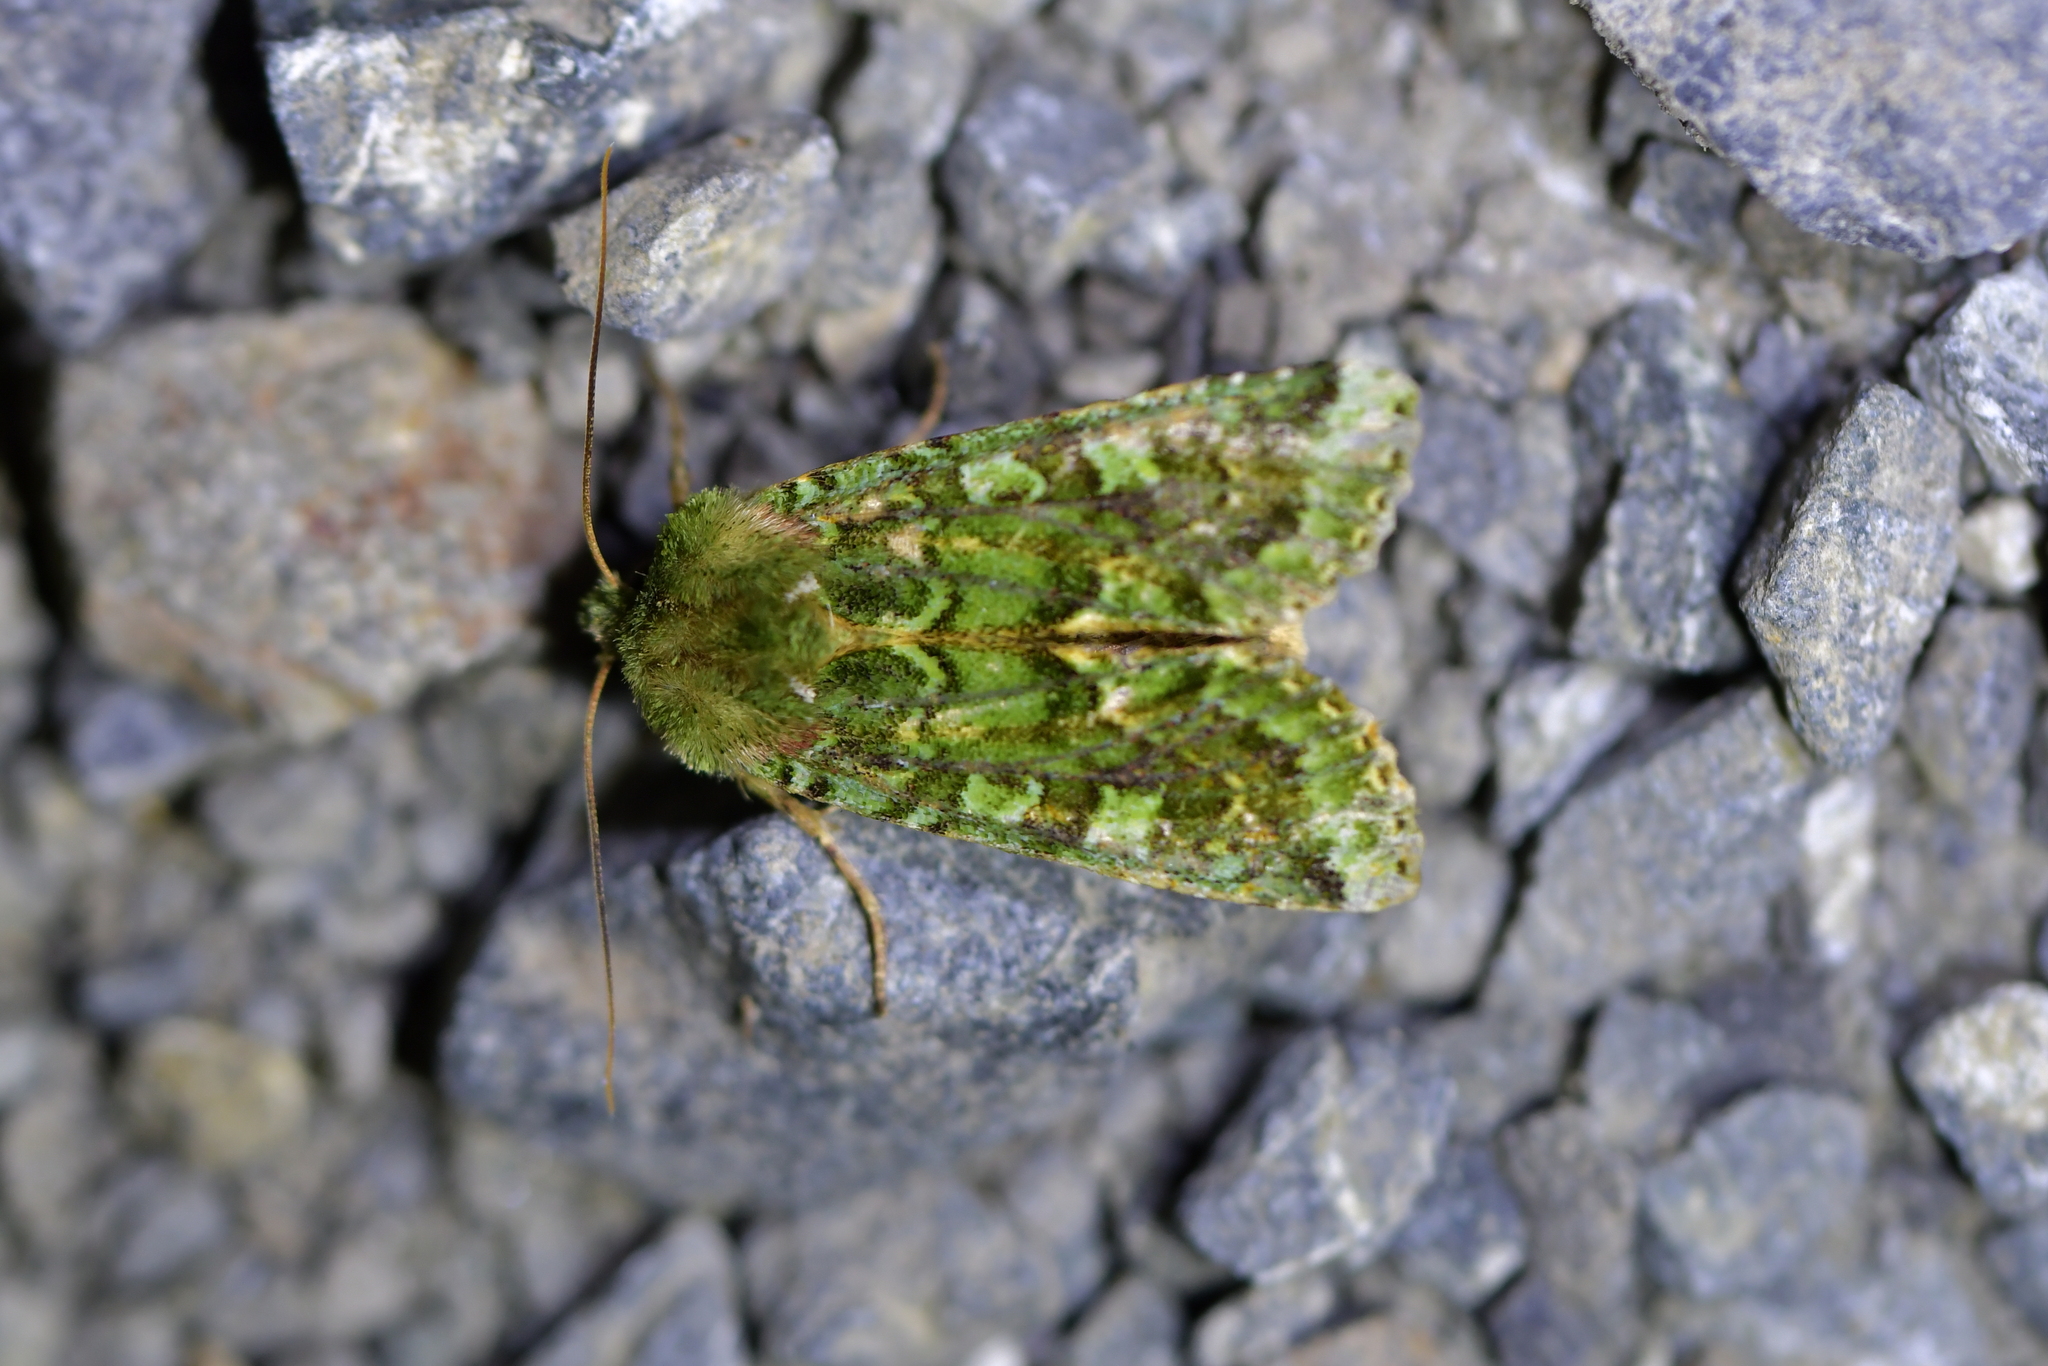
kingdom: Animalia
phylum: Arthropoda
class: Insecta
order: Lepidoptera
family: Noctuidae
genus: Feredayia
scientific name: Feredayia grammosa
